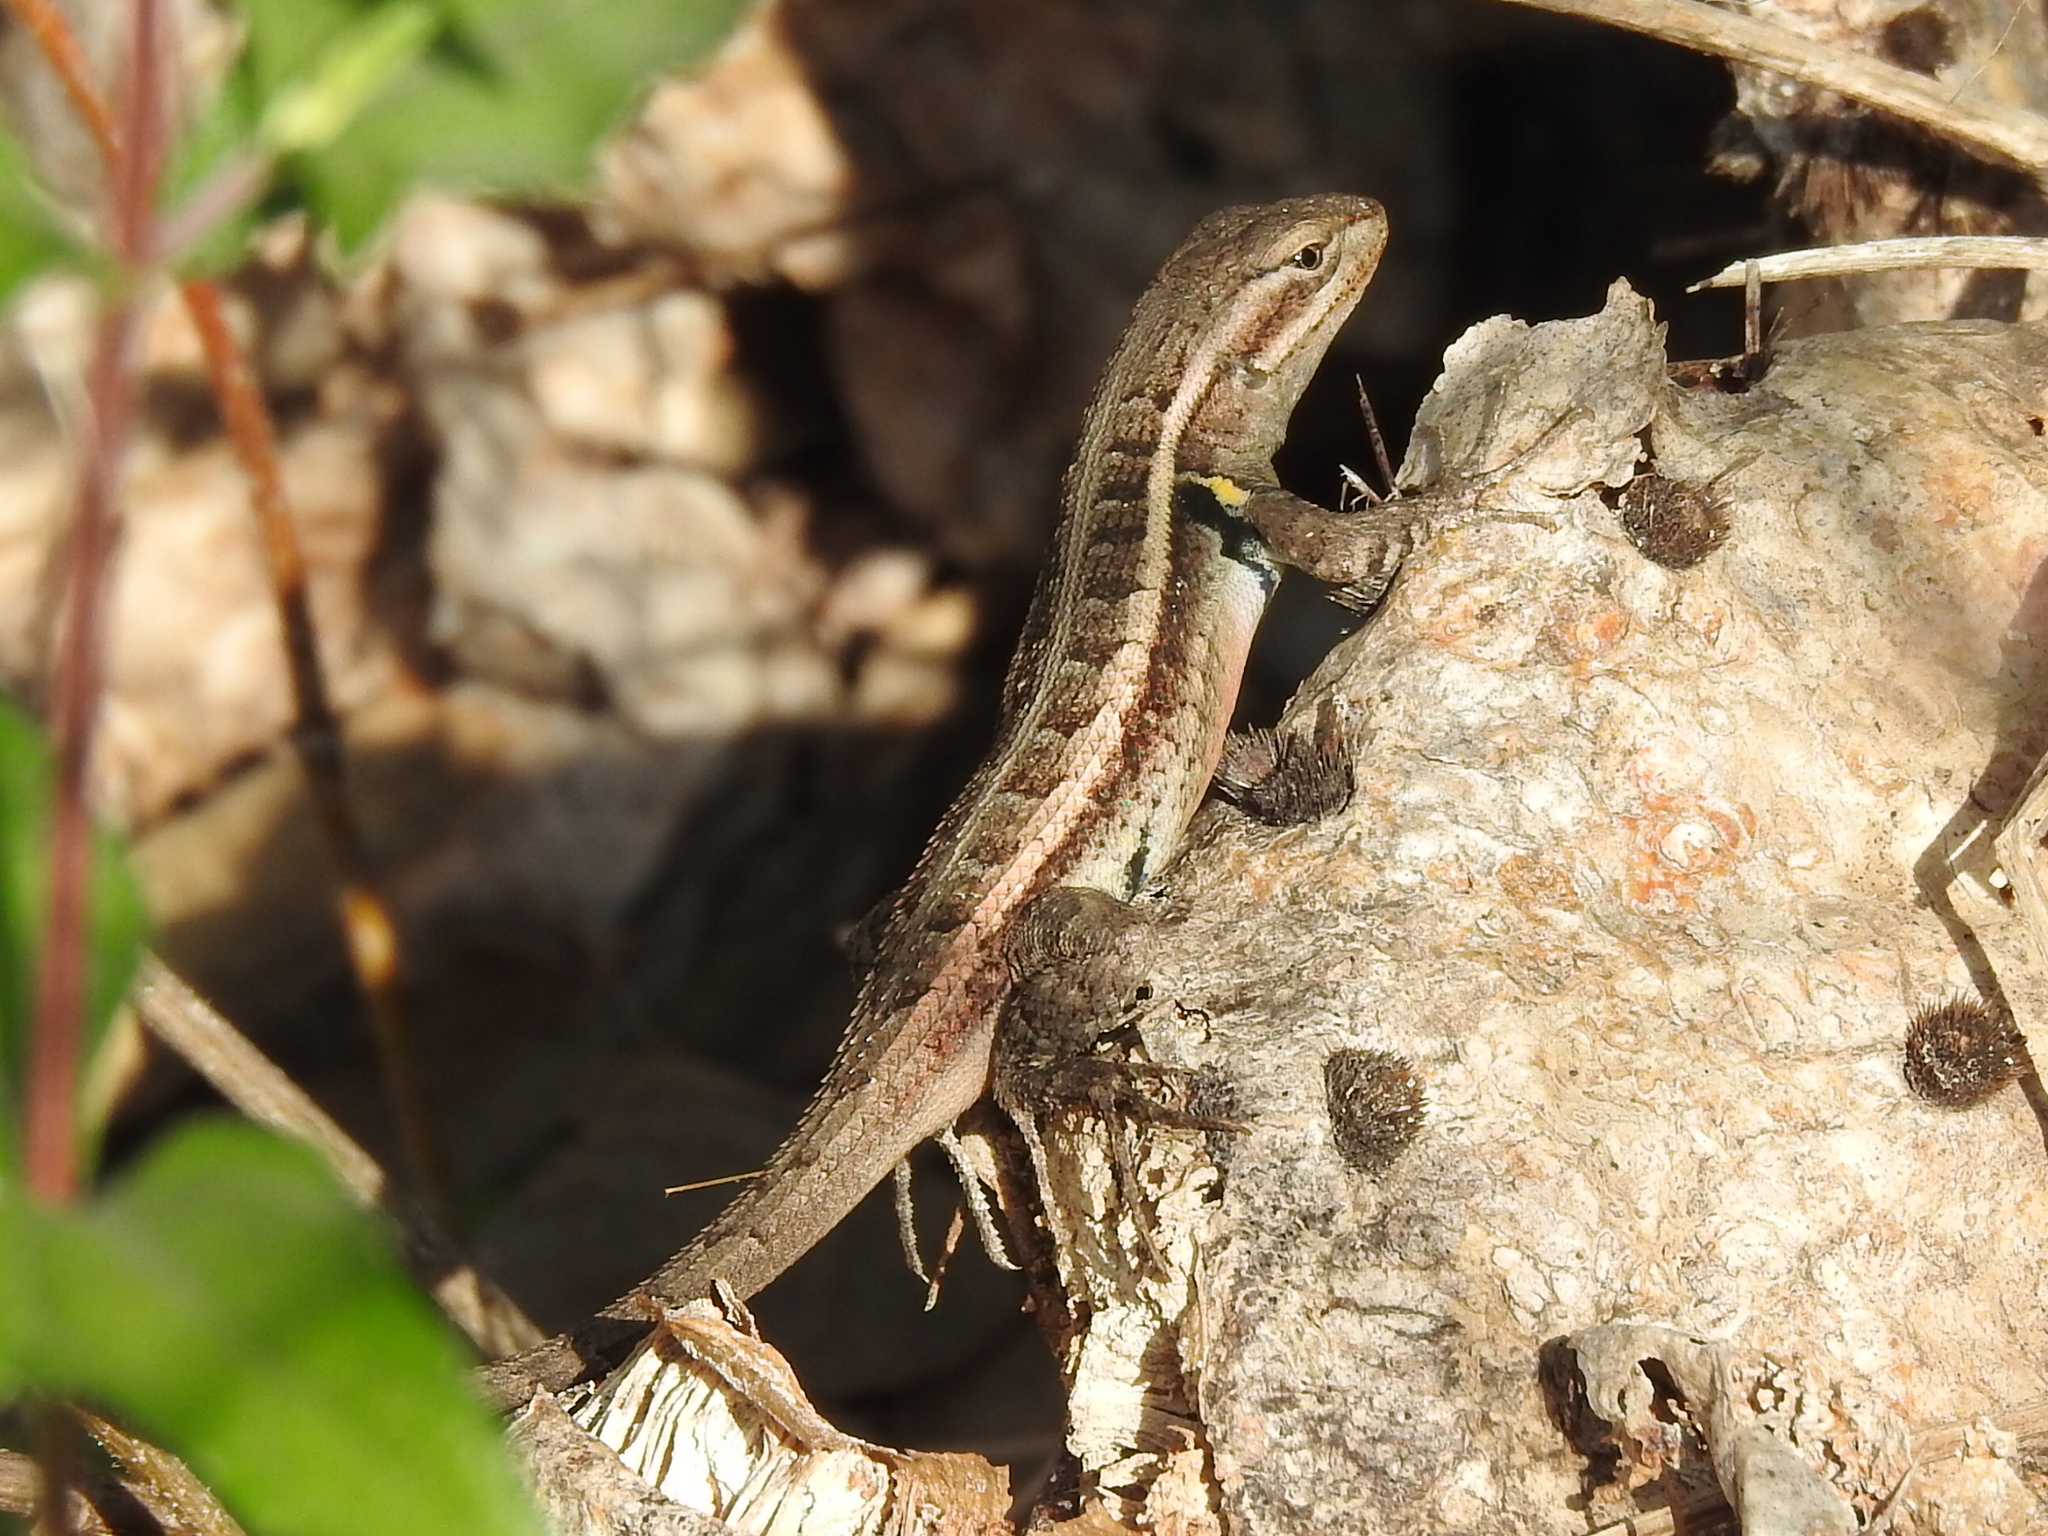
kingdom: Animalia
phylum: Chordata
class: Squamata
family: Phrynosomatidae
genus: Sceloporus
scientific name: Sceloporus variabilis
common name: Rosebelly lizard
